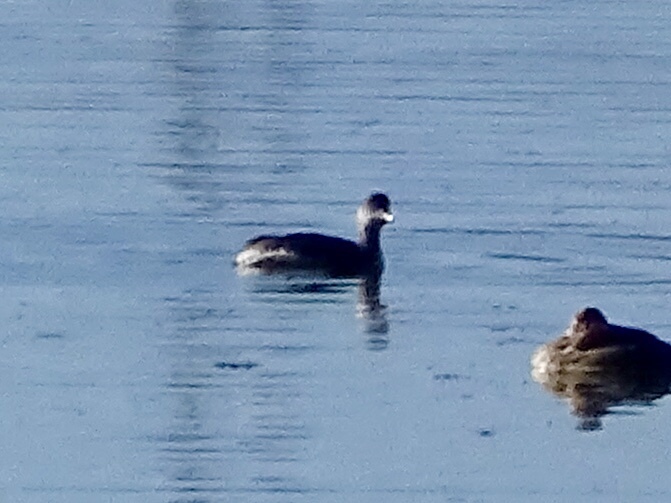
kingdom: Animalia
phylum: Chordata
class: Aves
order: Podicipediformes
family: Podicipedidae
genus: Podiceps
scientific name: Podiceps nigricollis
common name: Black-necked grebe
